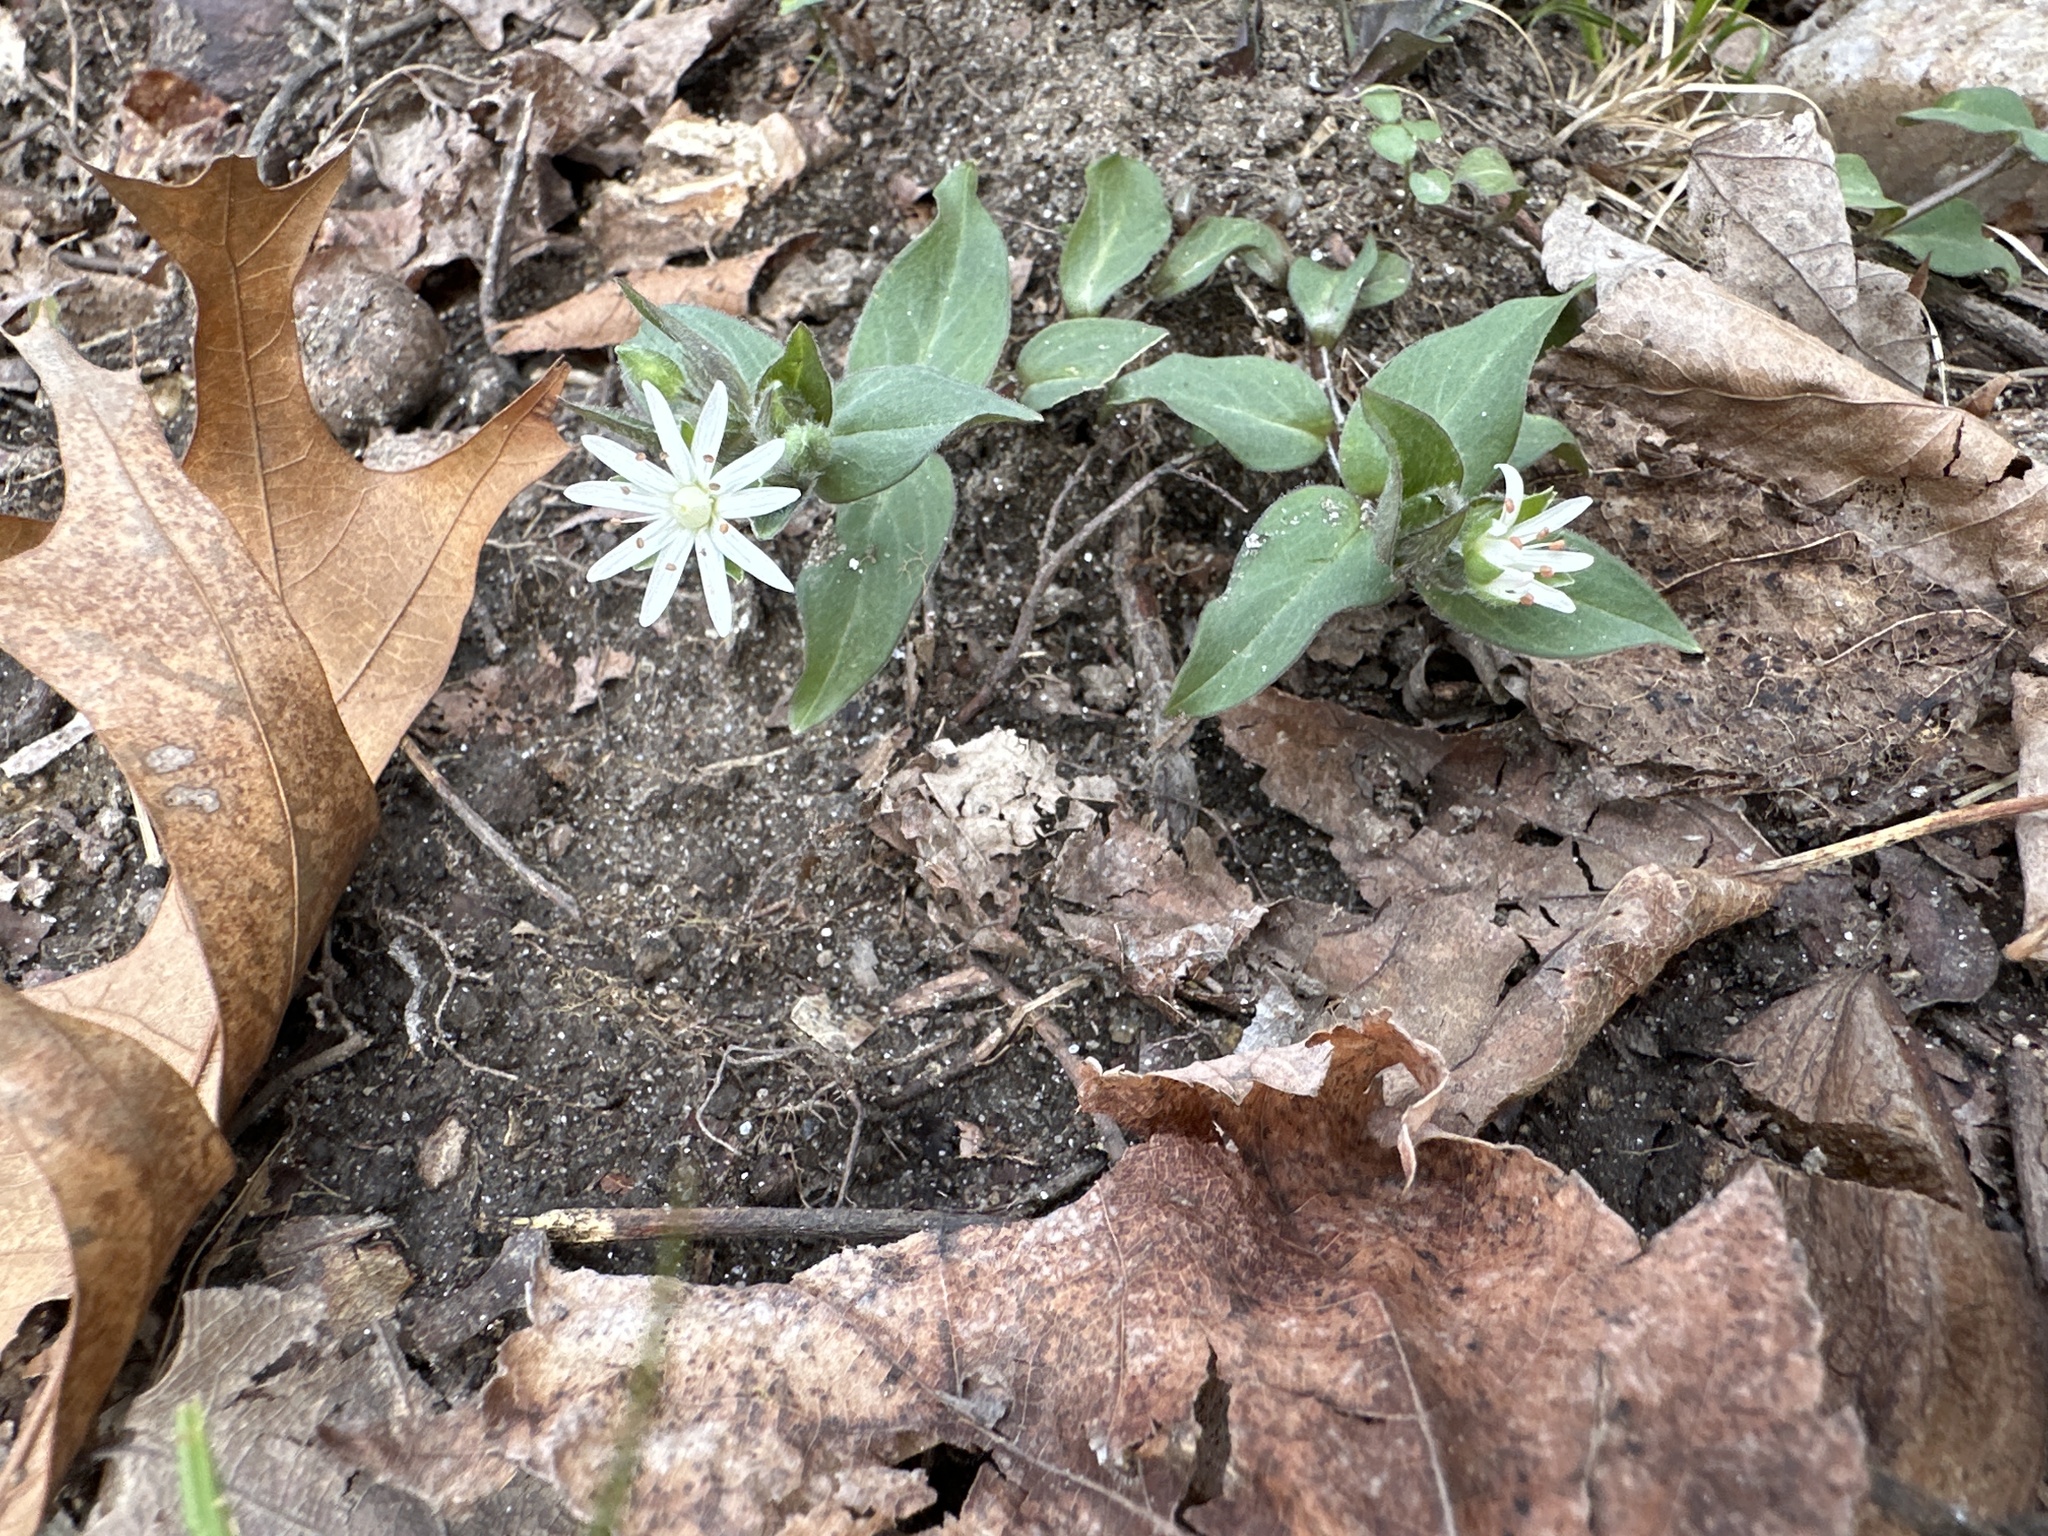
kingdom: Plantae
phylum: Tracheophyta
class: Magnoliopsida
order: Caryophyllales
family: Caryophyllaceae
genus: Stellaria
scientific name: Stellaria pubera
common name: Star chickweed
